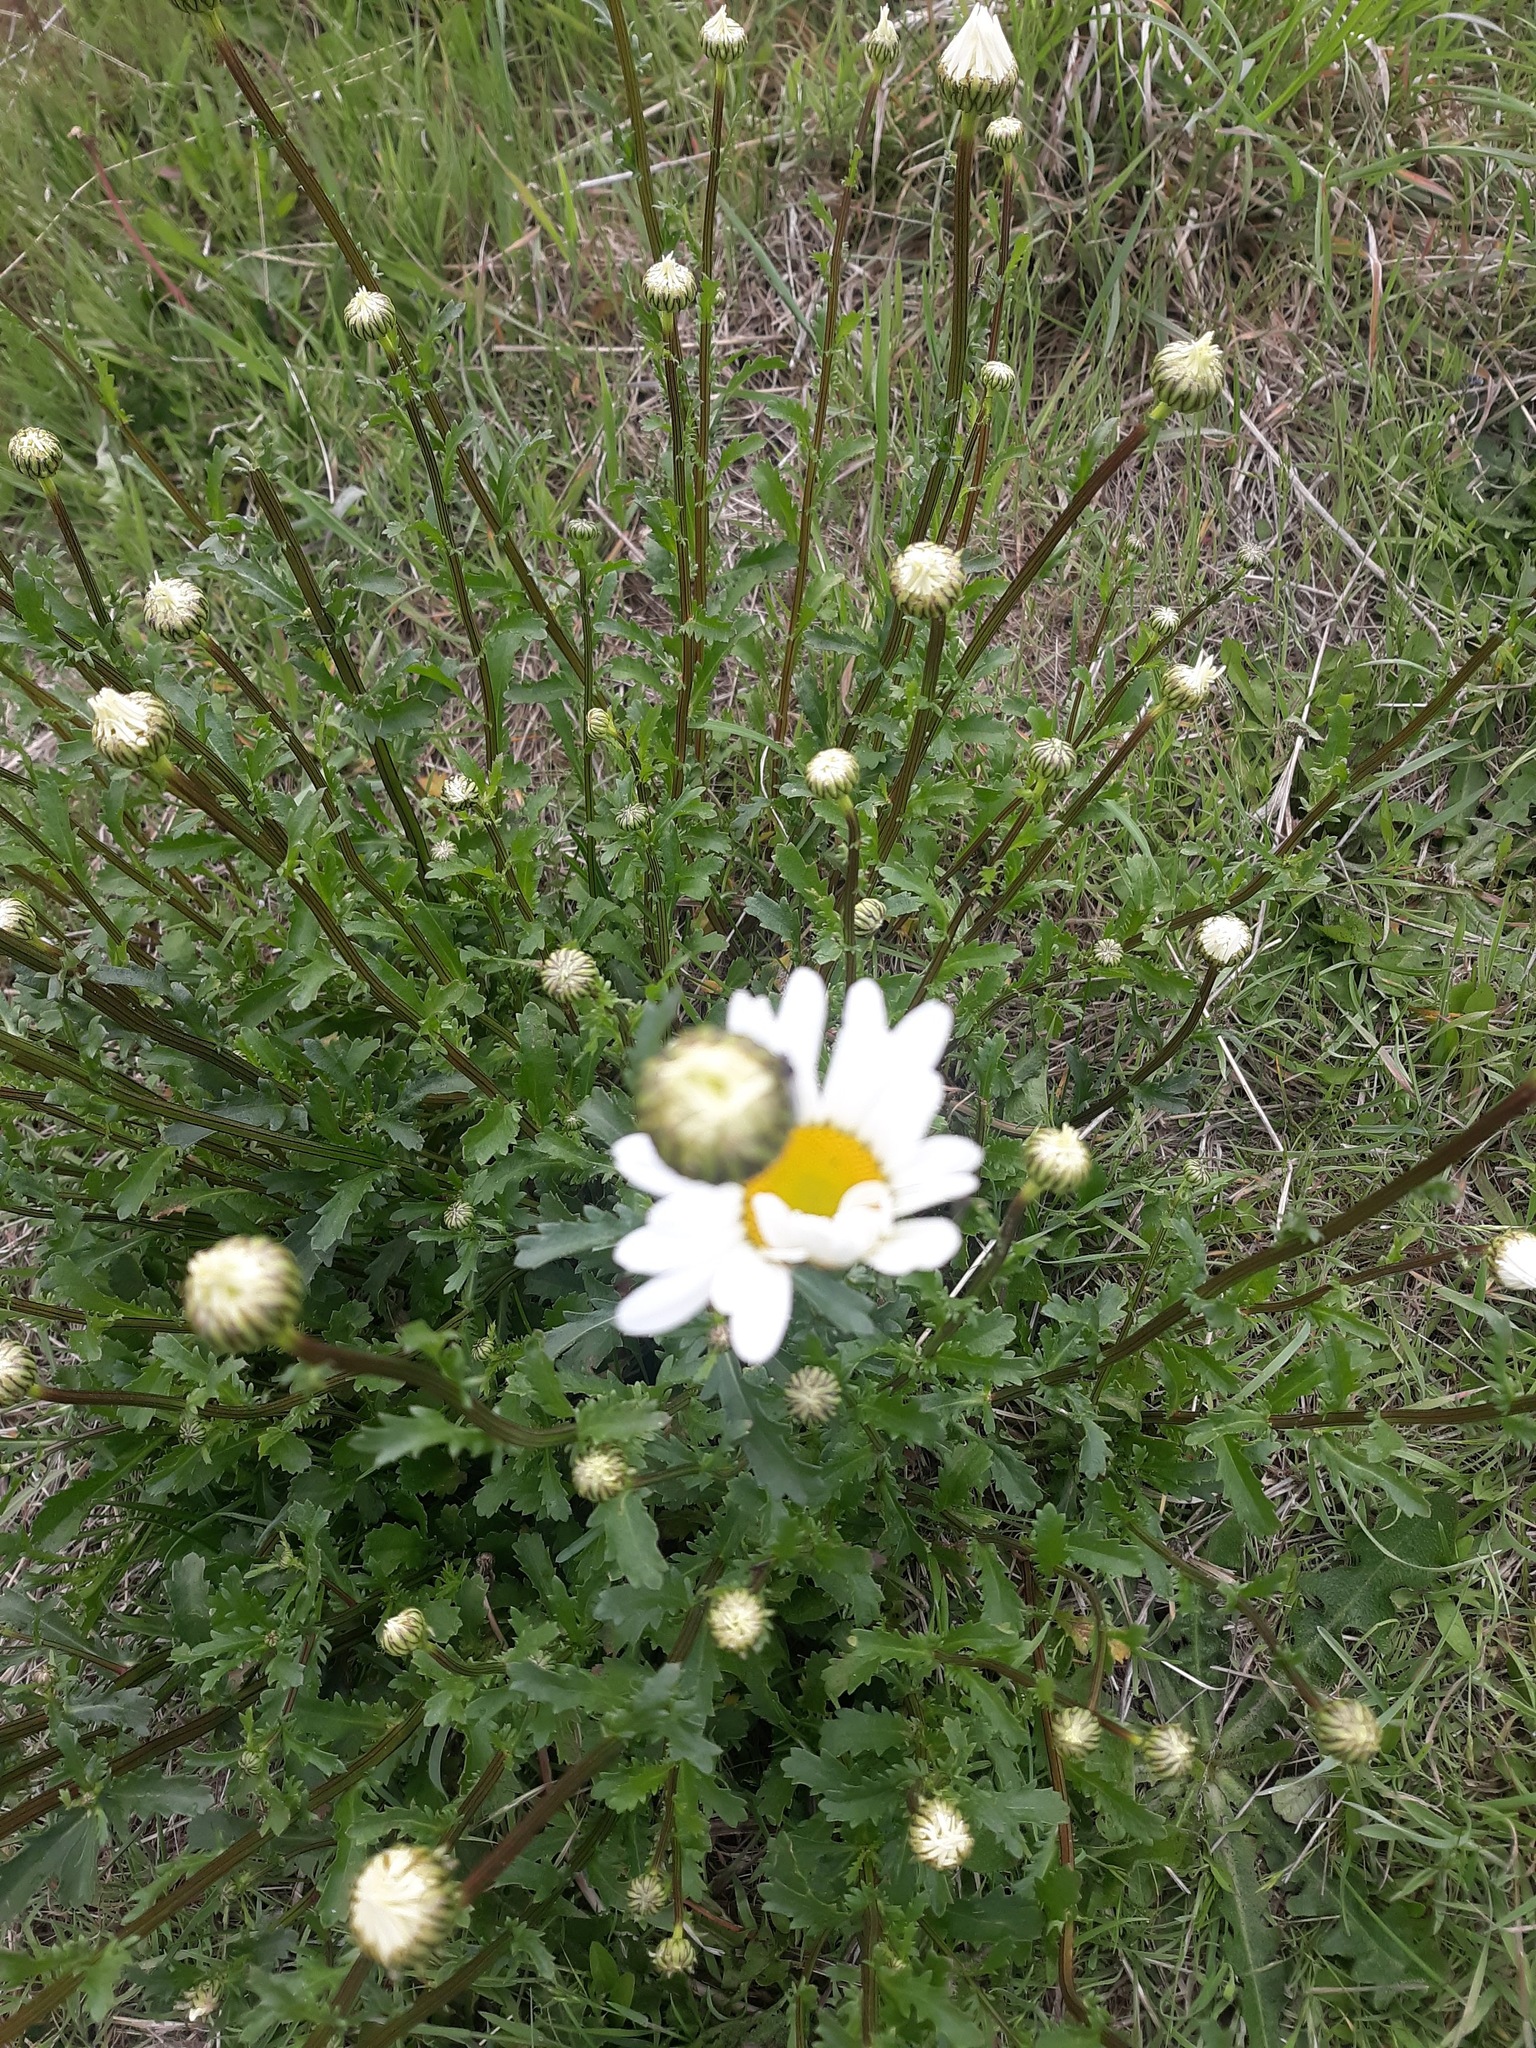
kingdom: Plantae
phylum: Tracheophyta
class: Magnoliopsida
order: Asterales
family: Asteraceae
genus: Leucanthemum
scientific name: Leucanthemum vulgare
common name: Oxeye daisy
